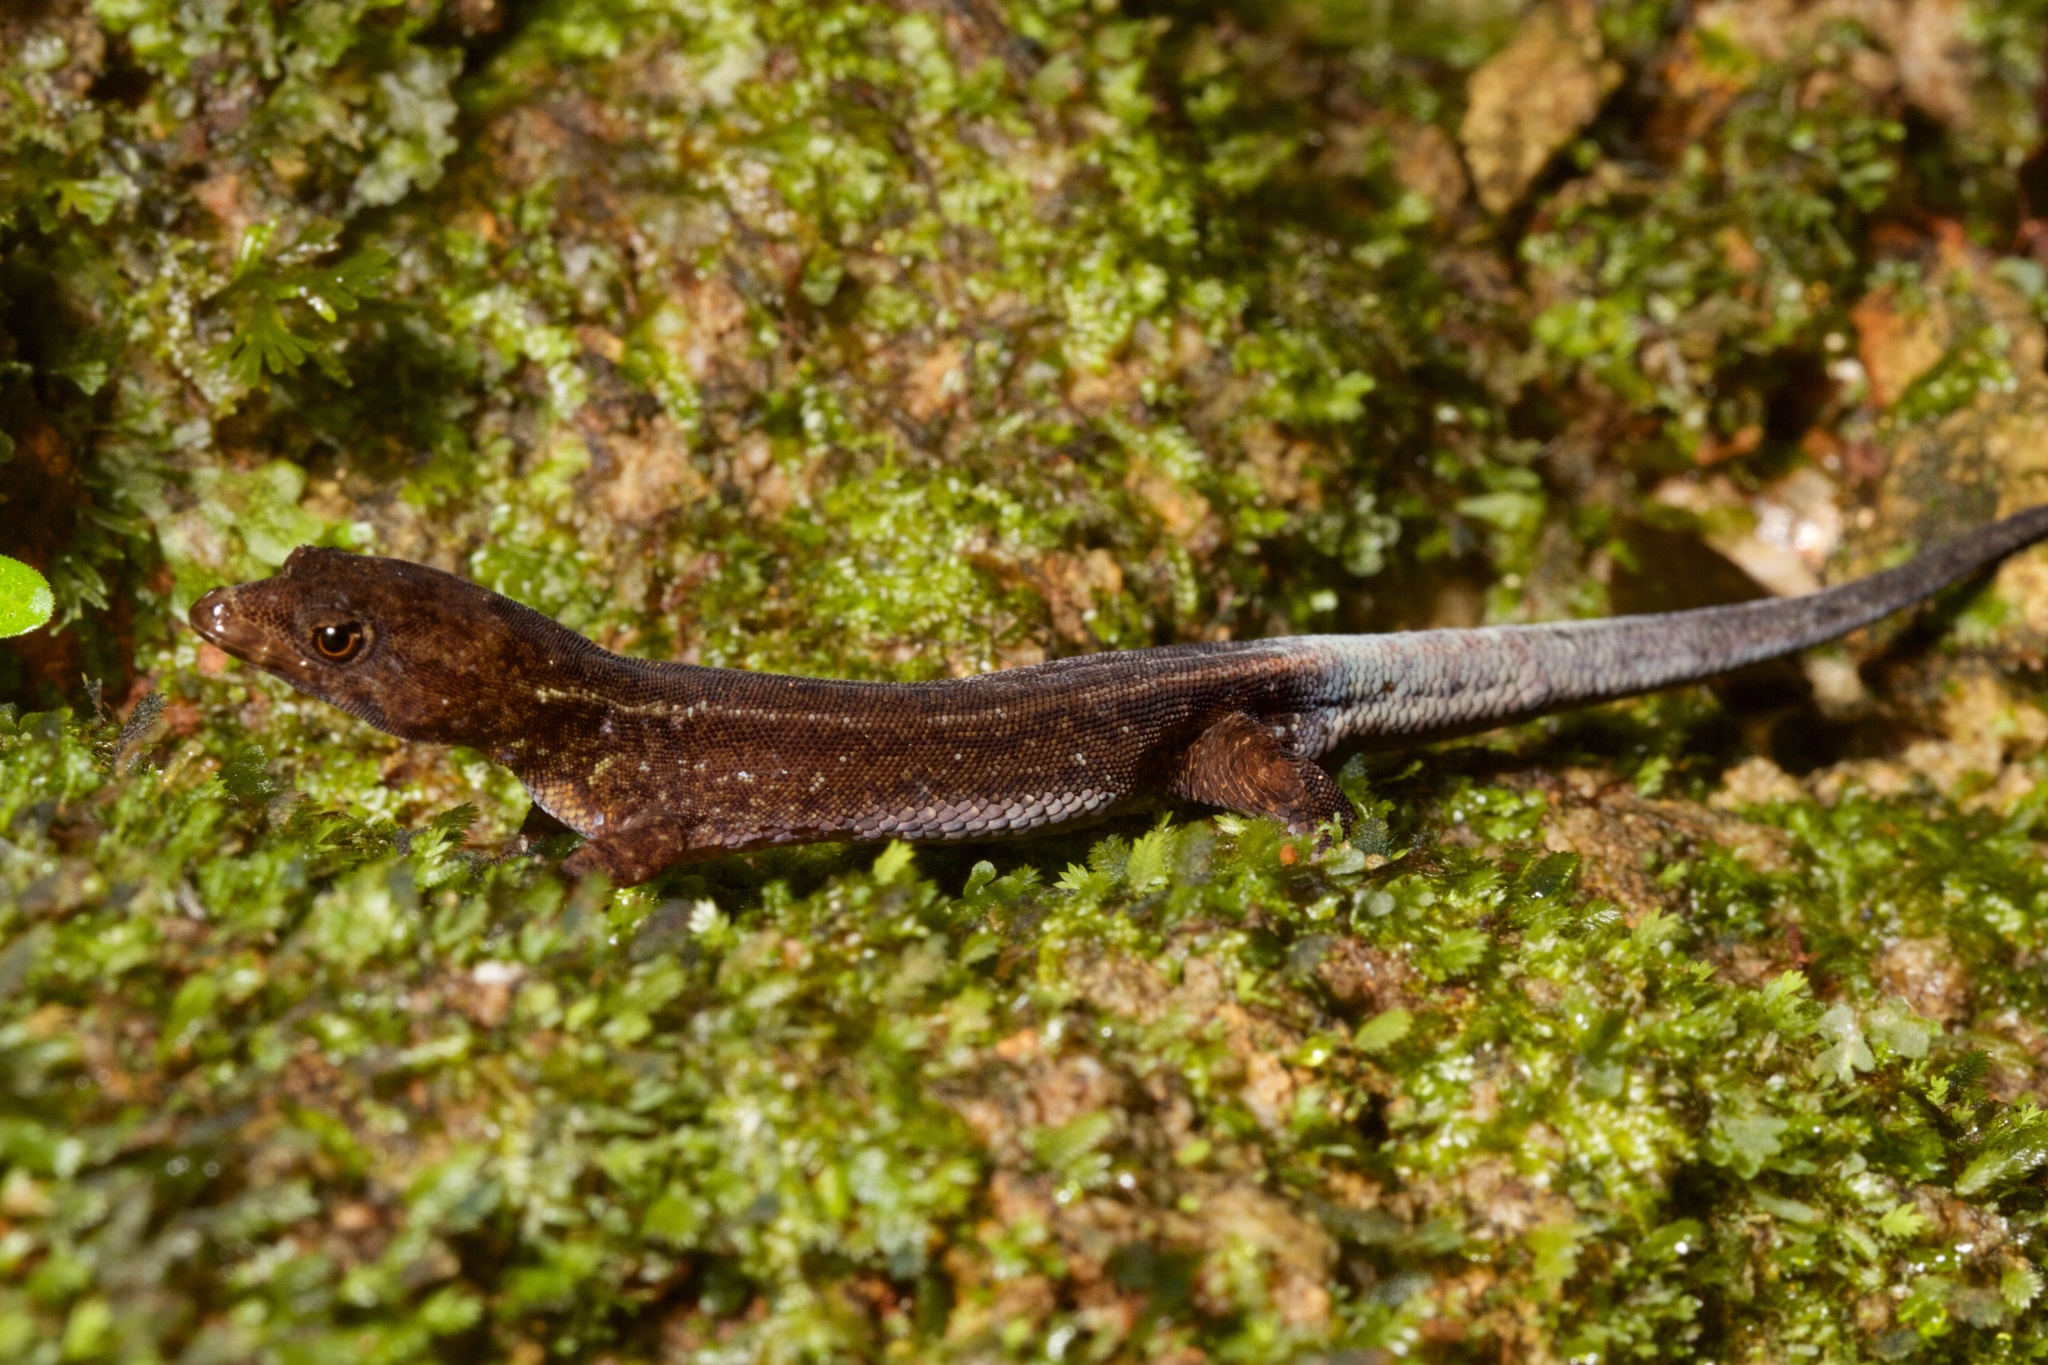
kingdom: Animalia
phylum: Chordata
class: Squamata
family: Sphaerodactylidae
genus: Lepidoblepharis
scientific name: Lepidoblepharis xanthostigma
